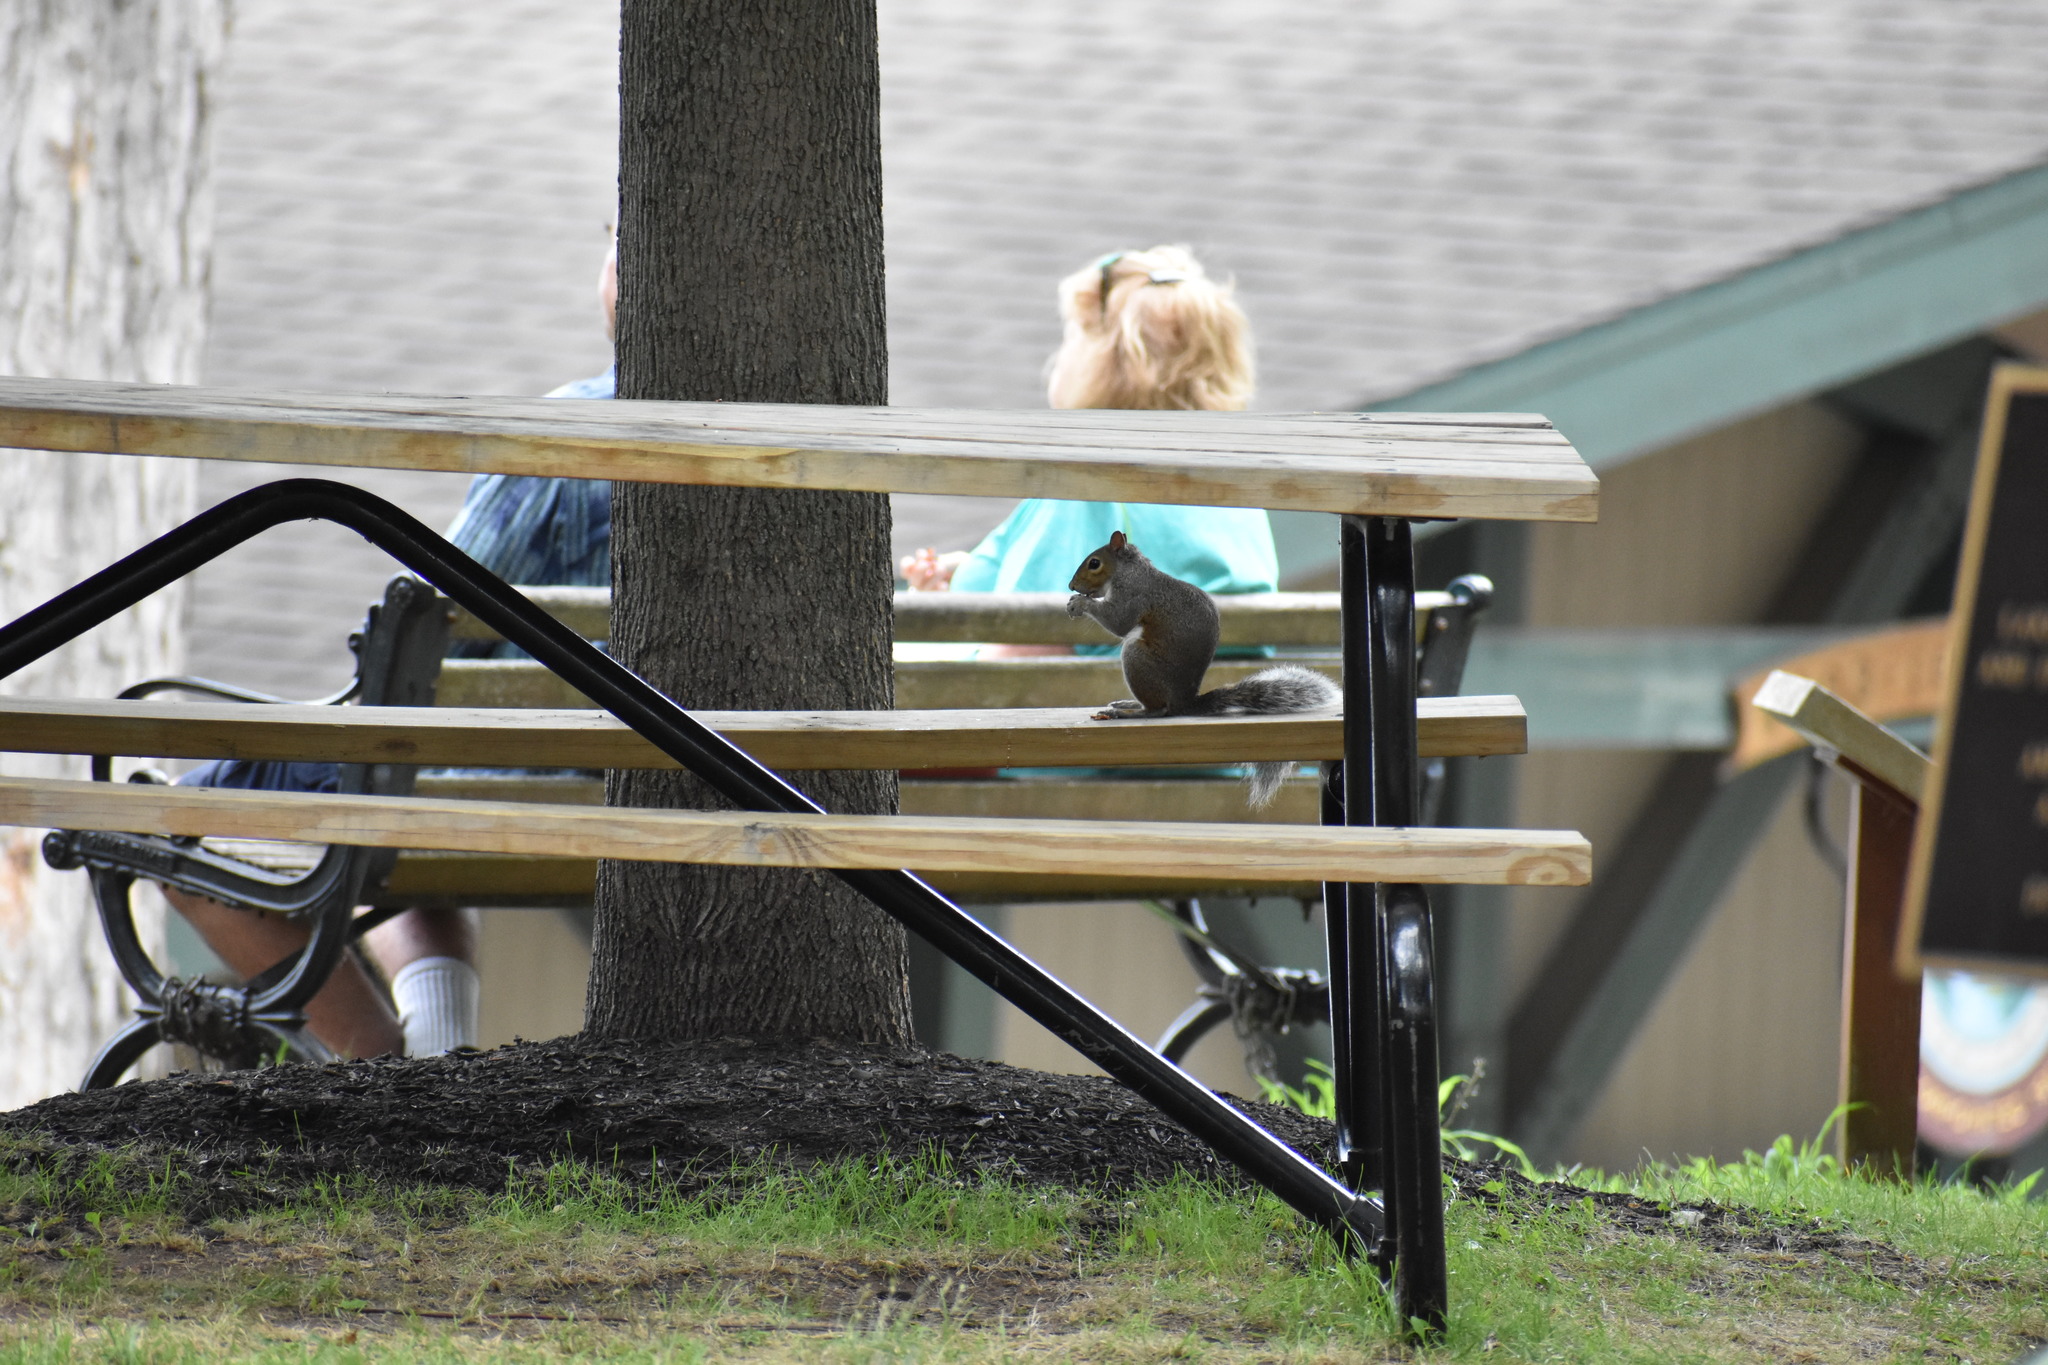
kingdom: Animalia
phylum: Chordata
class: Mammalia
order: Rodentia
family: Sciuridae
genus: Sciurus
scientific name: Sciurus carolinensis
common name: Eastern gray squirrel
